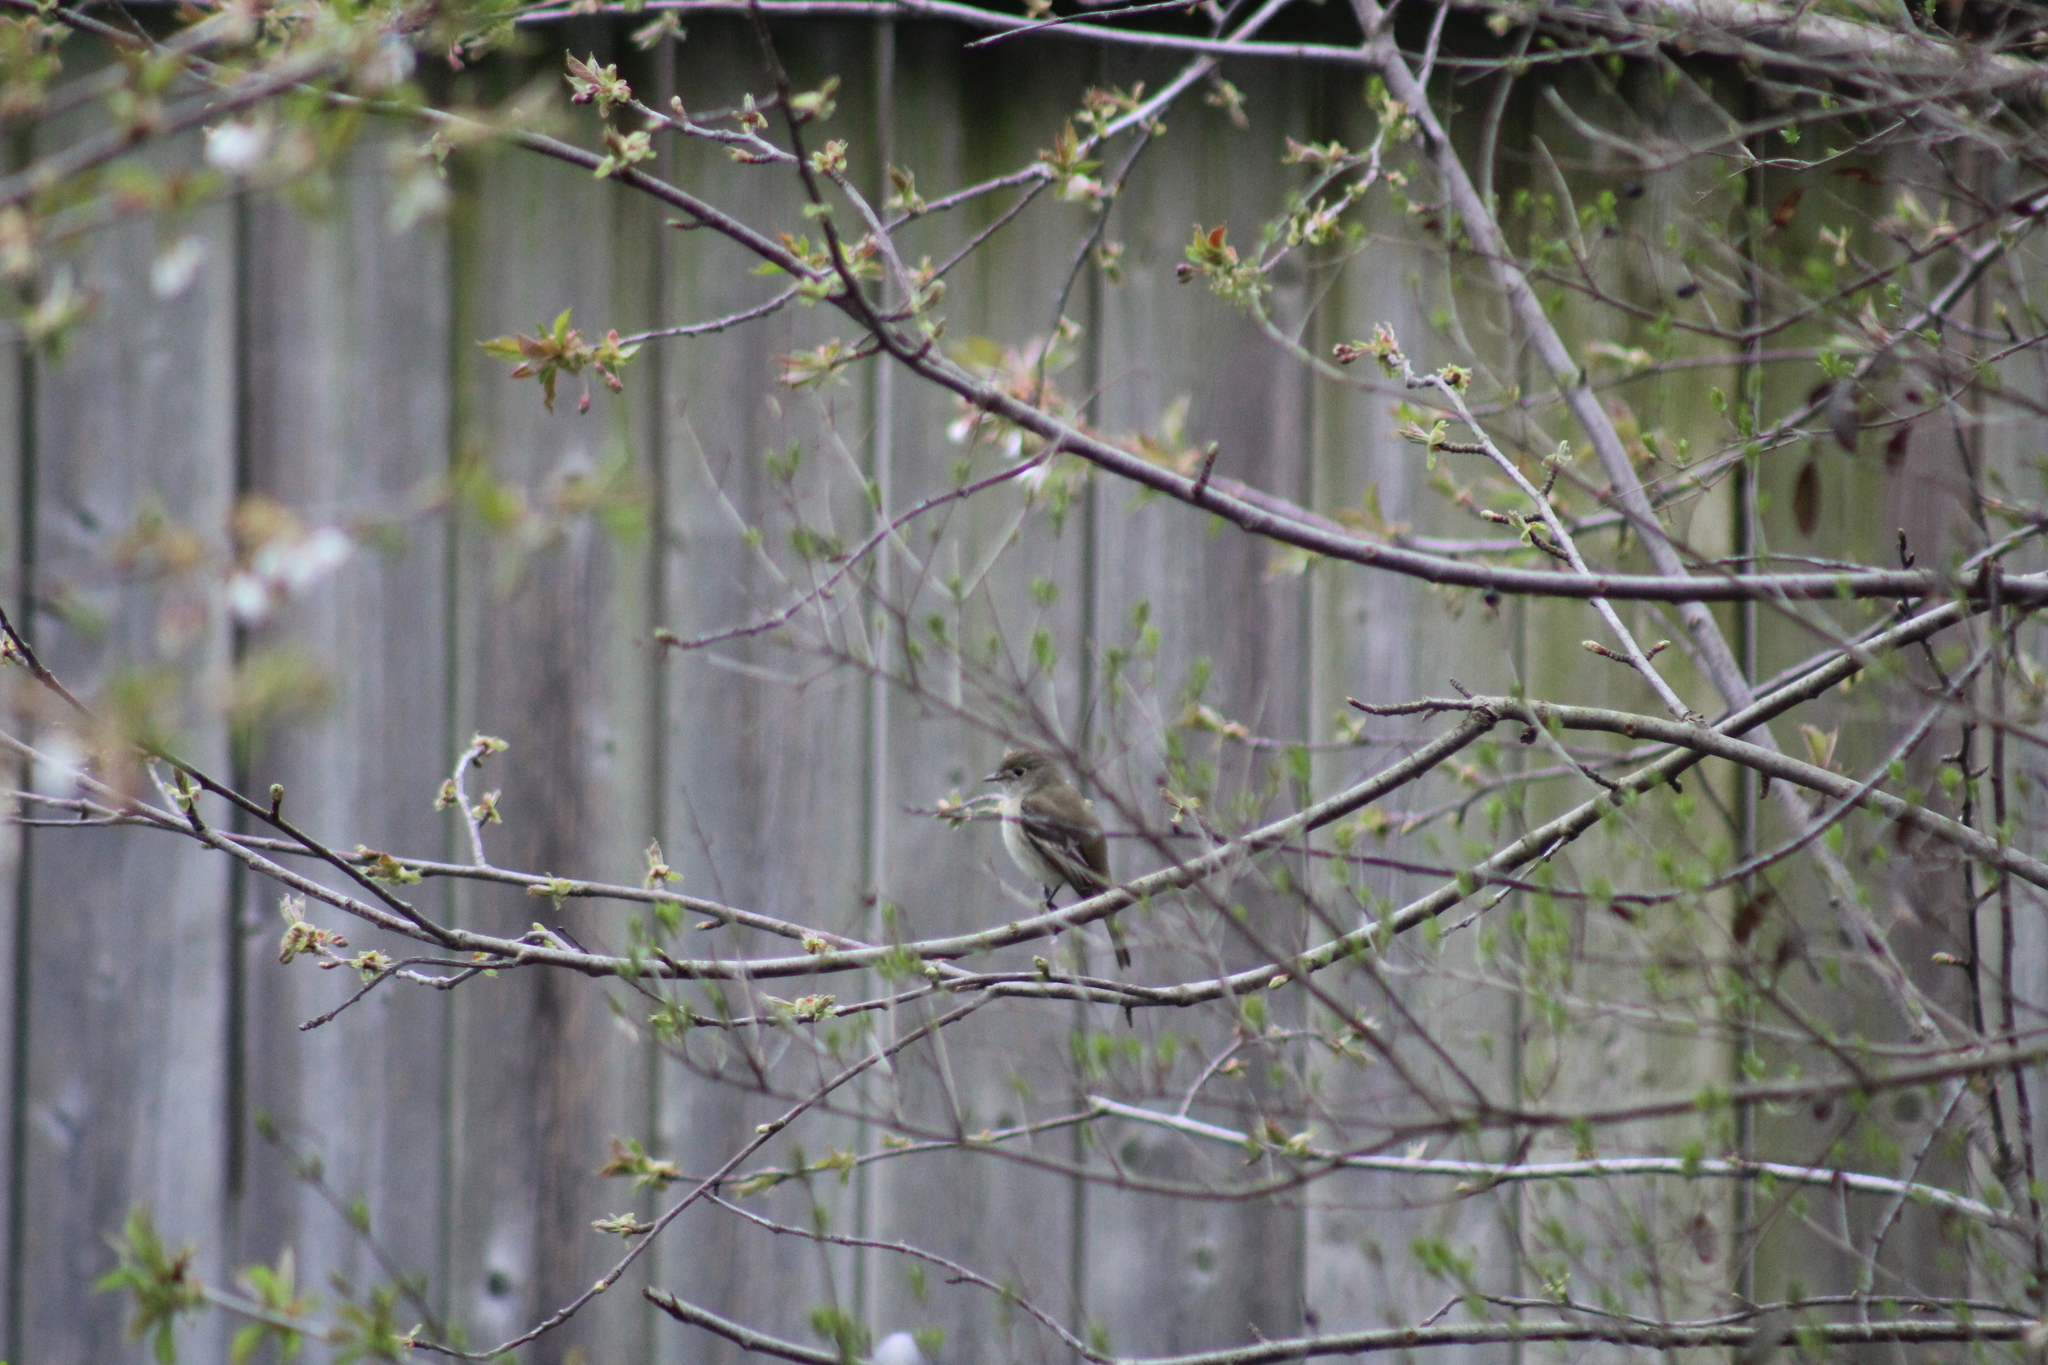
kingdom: Animalia
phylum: Chordata
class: Aves
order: Passeriformes
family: Tyrannidae
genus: Empidonax
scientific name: Empidonax minimus
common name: Least flycatcher
